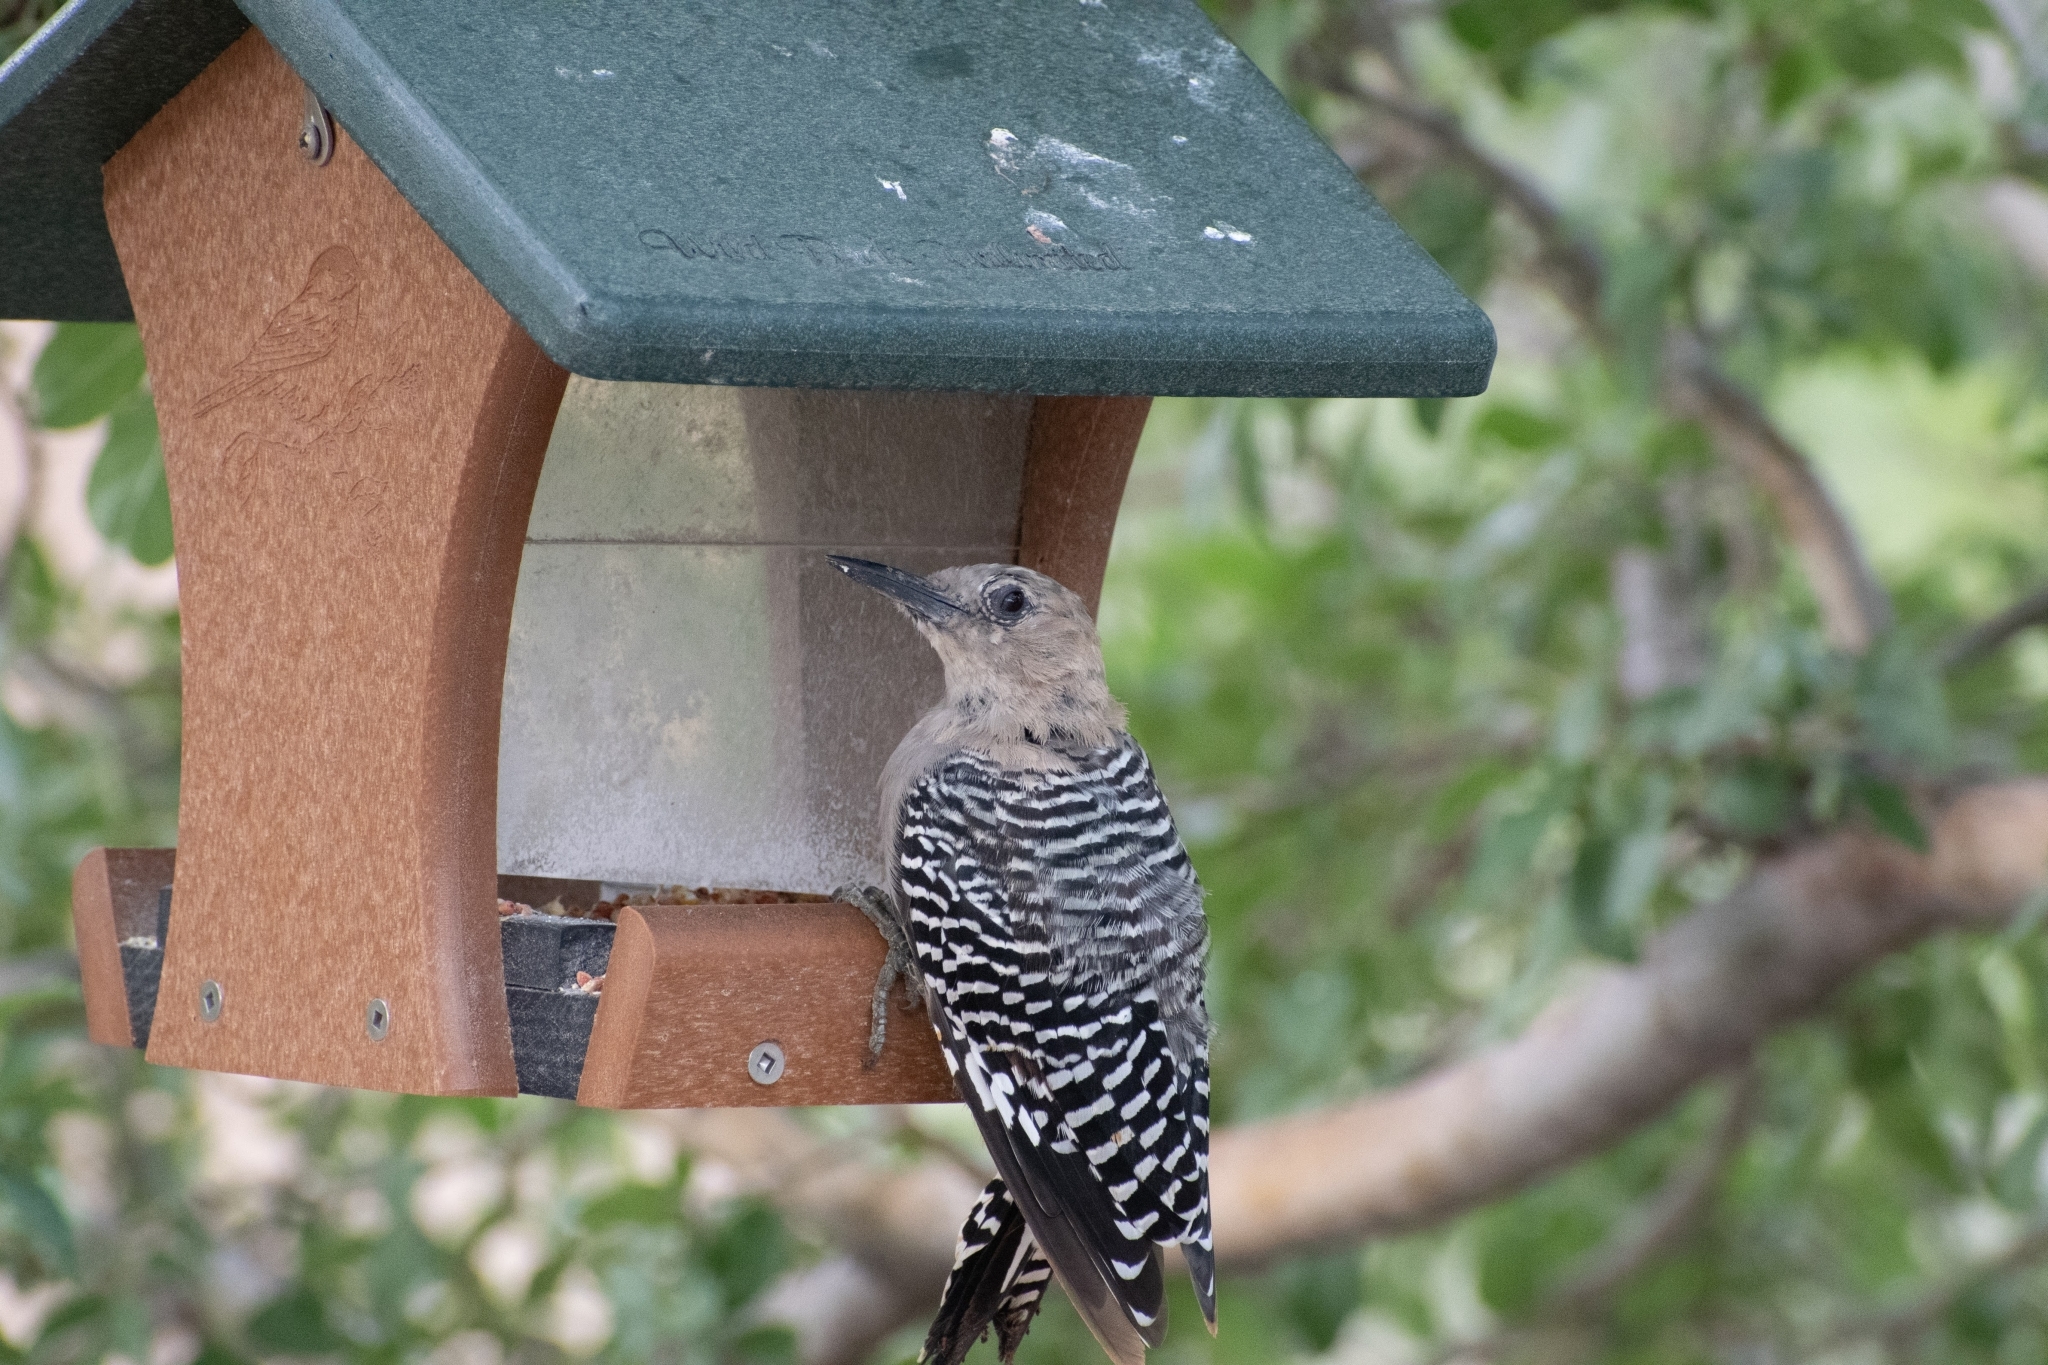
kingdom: Animalia
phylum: Chordata
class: Aves
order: Piciformes
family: Picidae
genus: Melanerpes
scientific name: Melanerpes uropygialis
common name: Gila woodpecker
